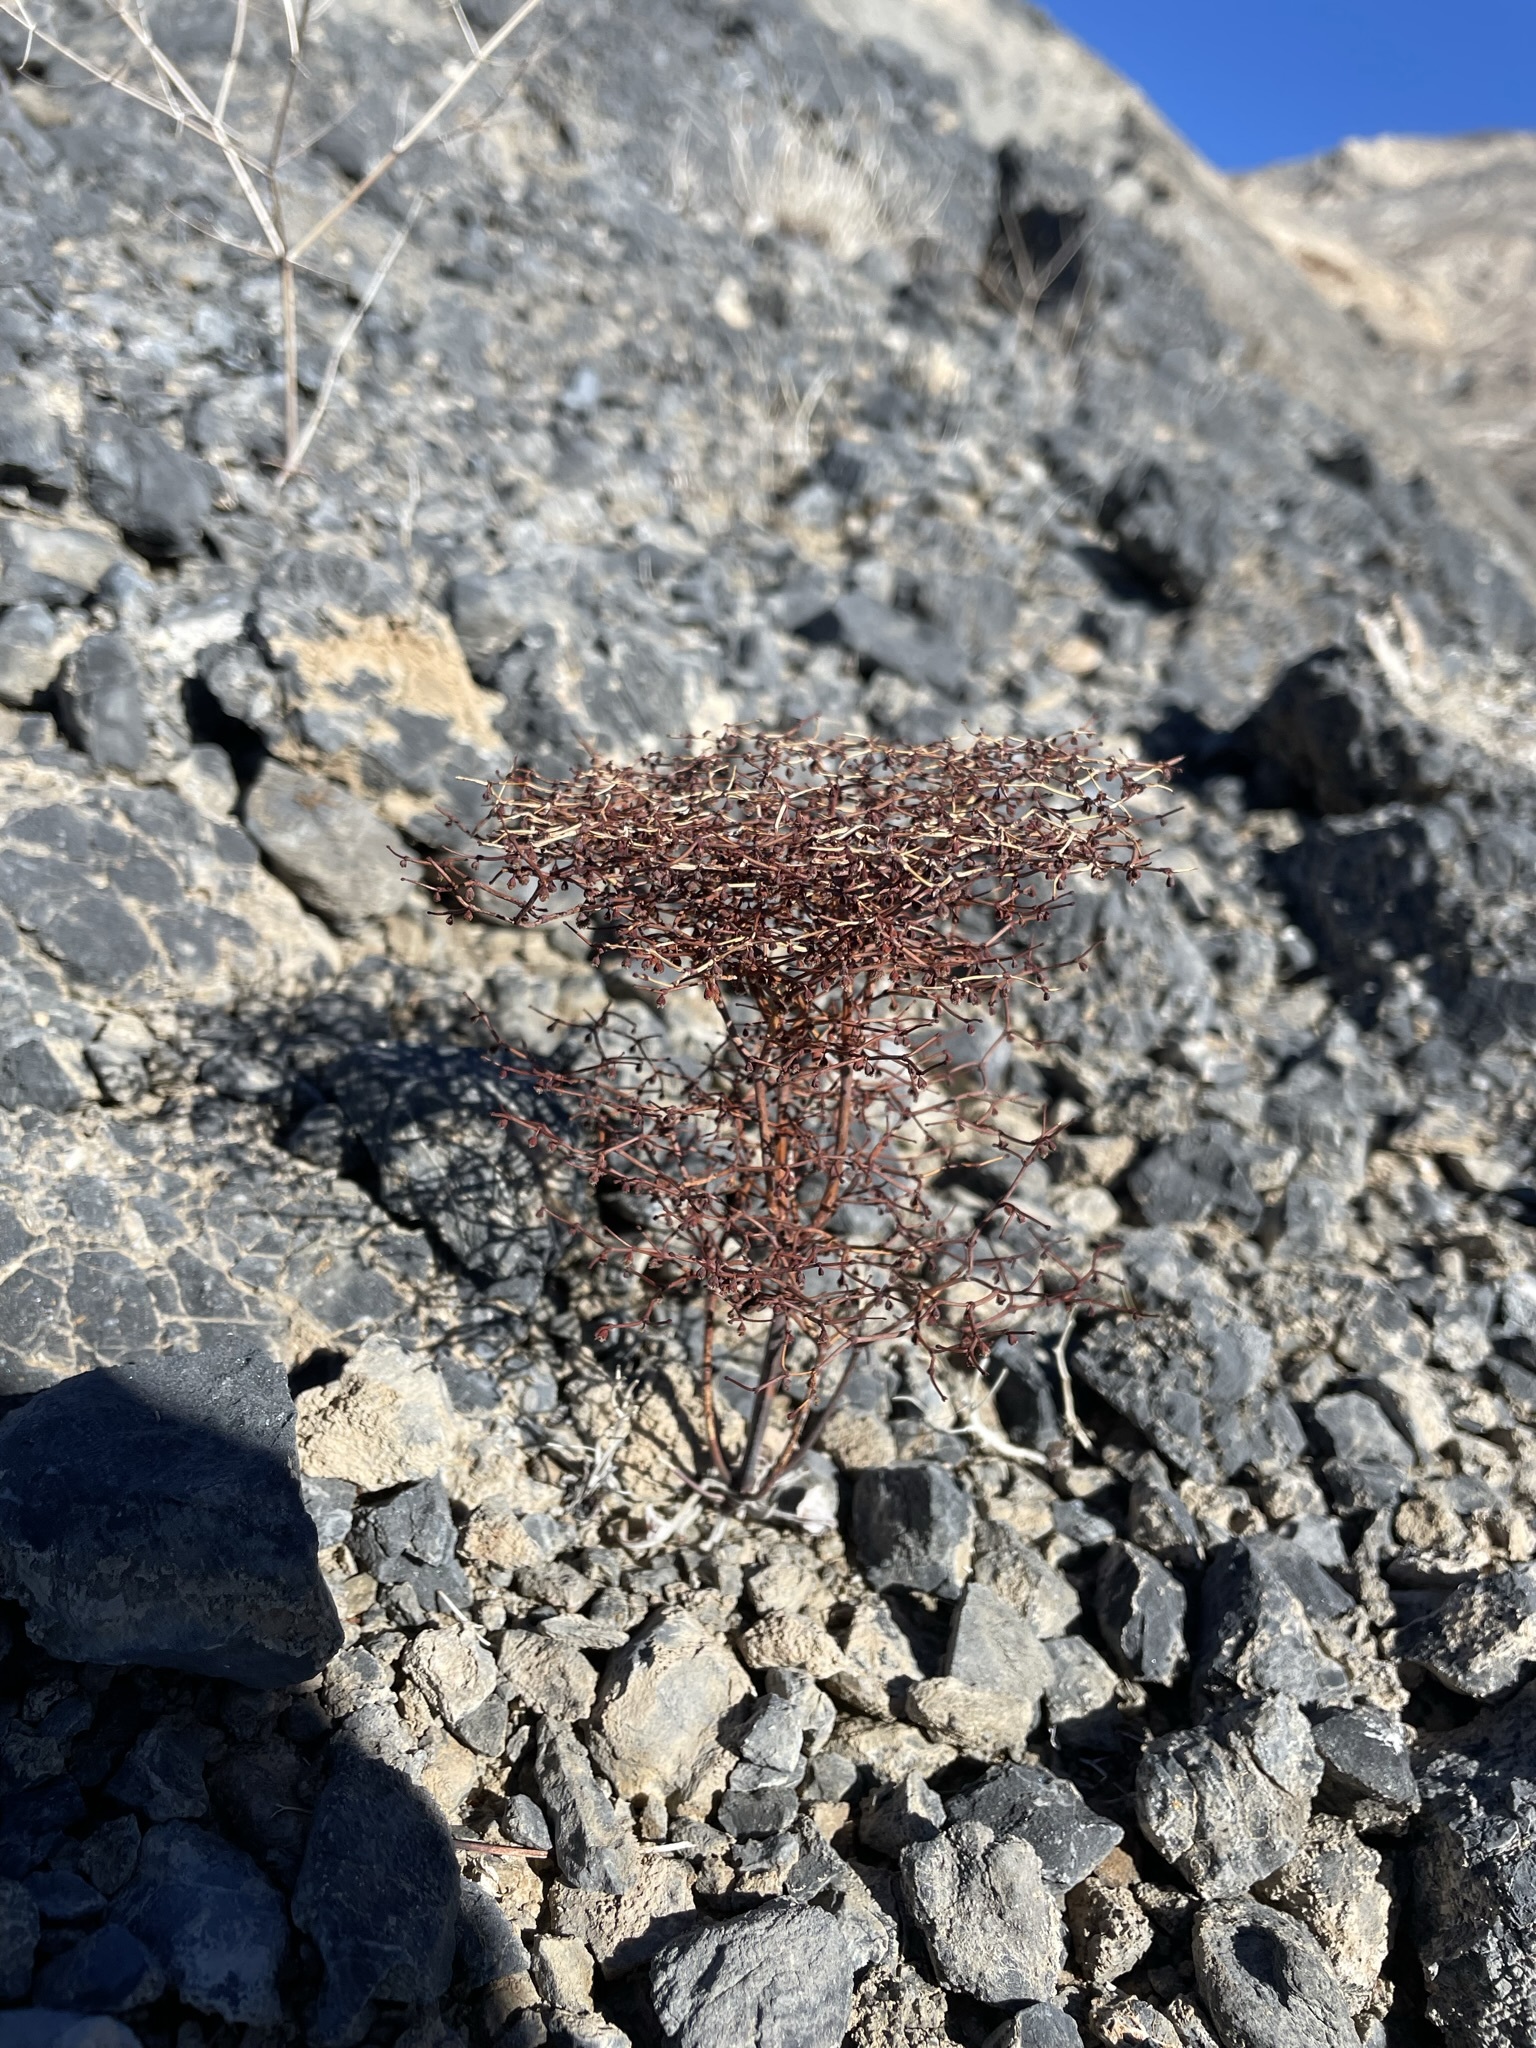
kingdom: Plantae
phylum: Tracheophyta
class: Magnoliopsida
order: Caryophyllales
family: Polygonaceae
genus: Eriogonum
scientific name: Eriogonum rixfordii
